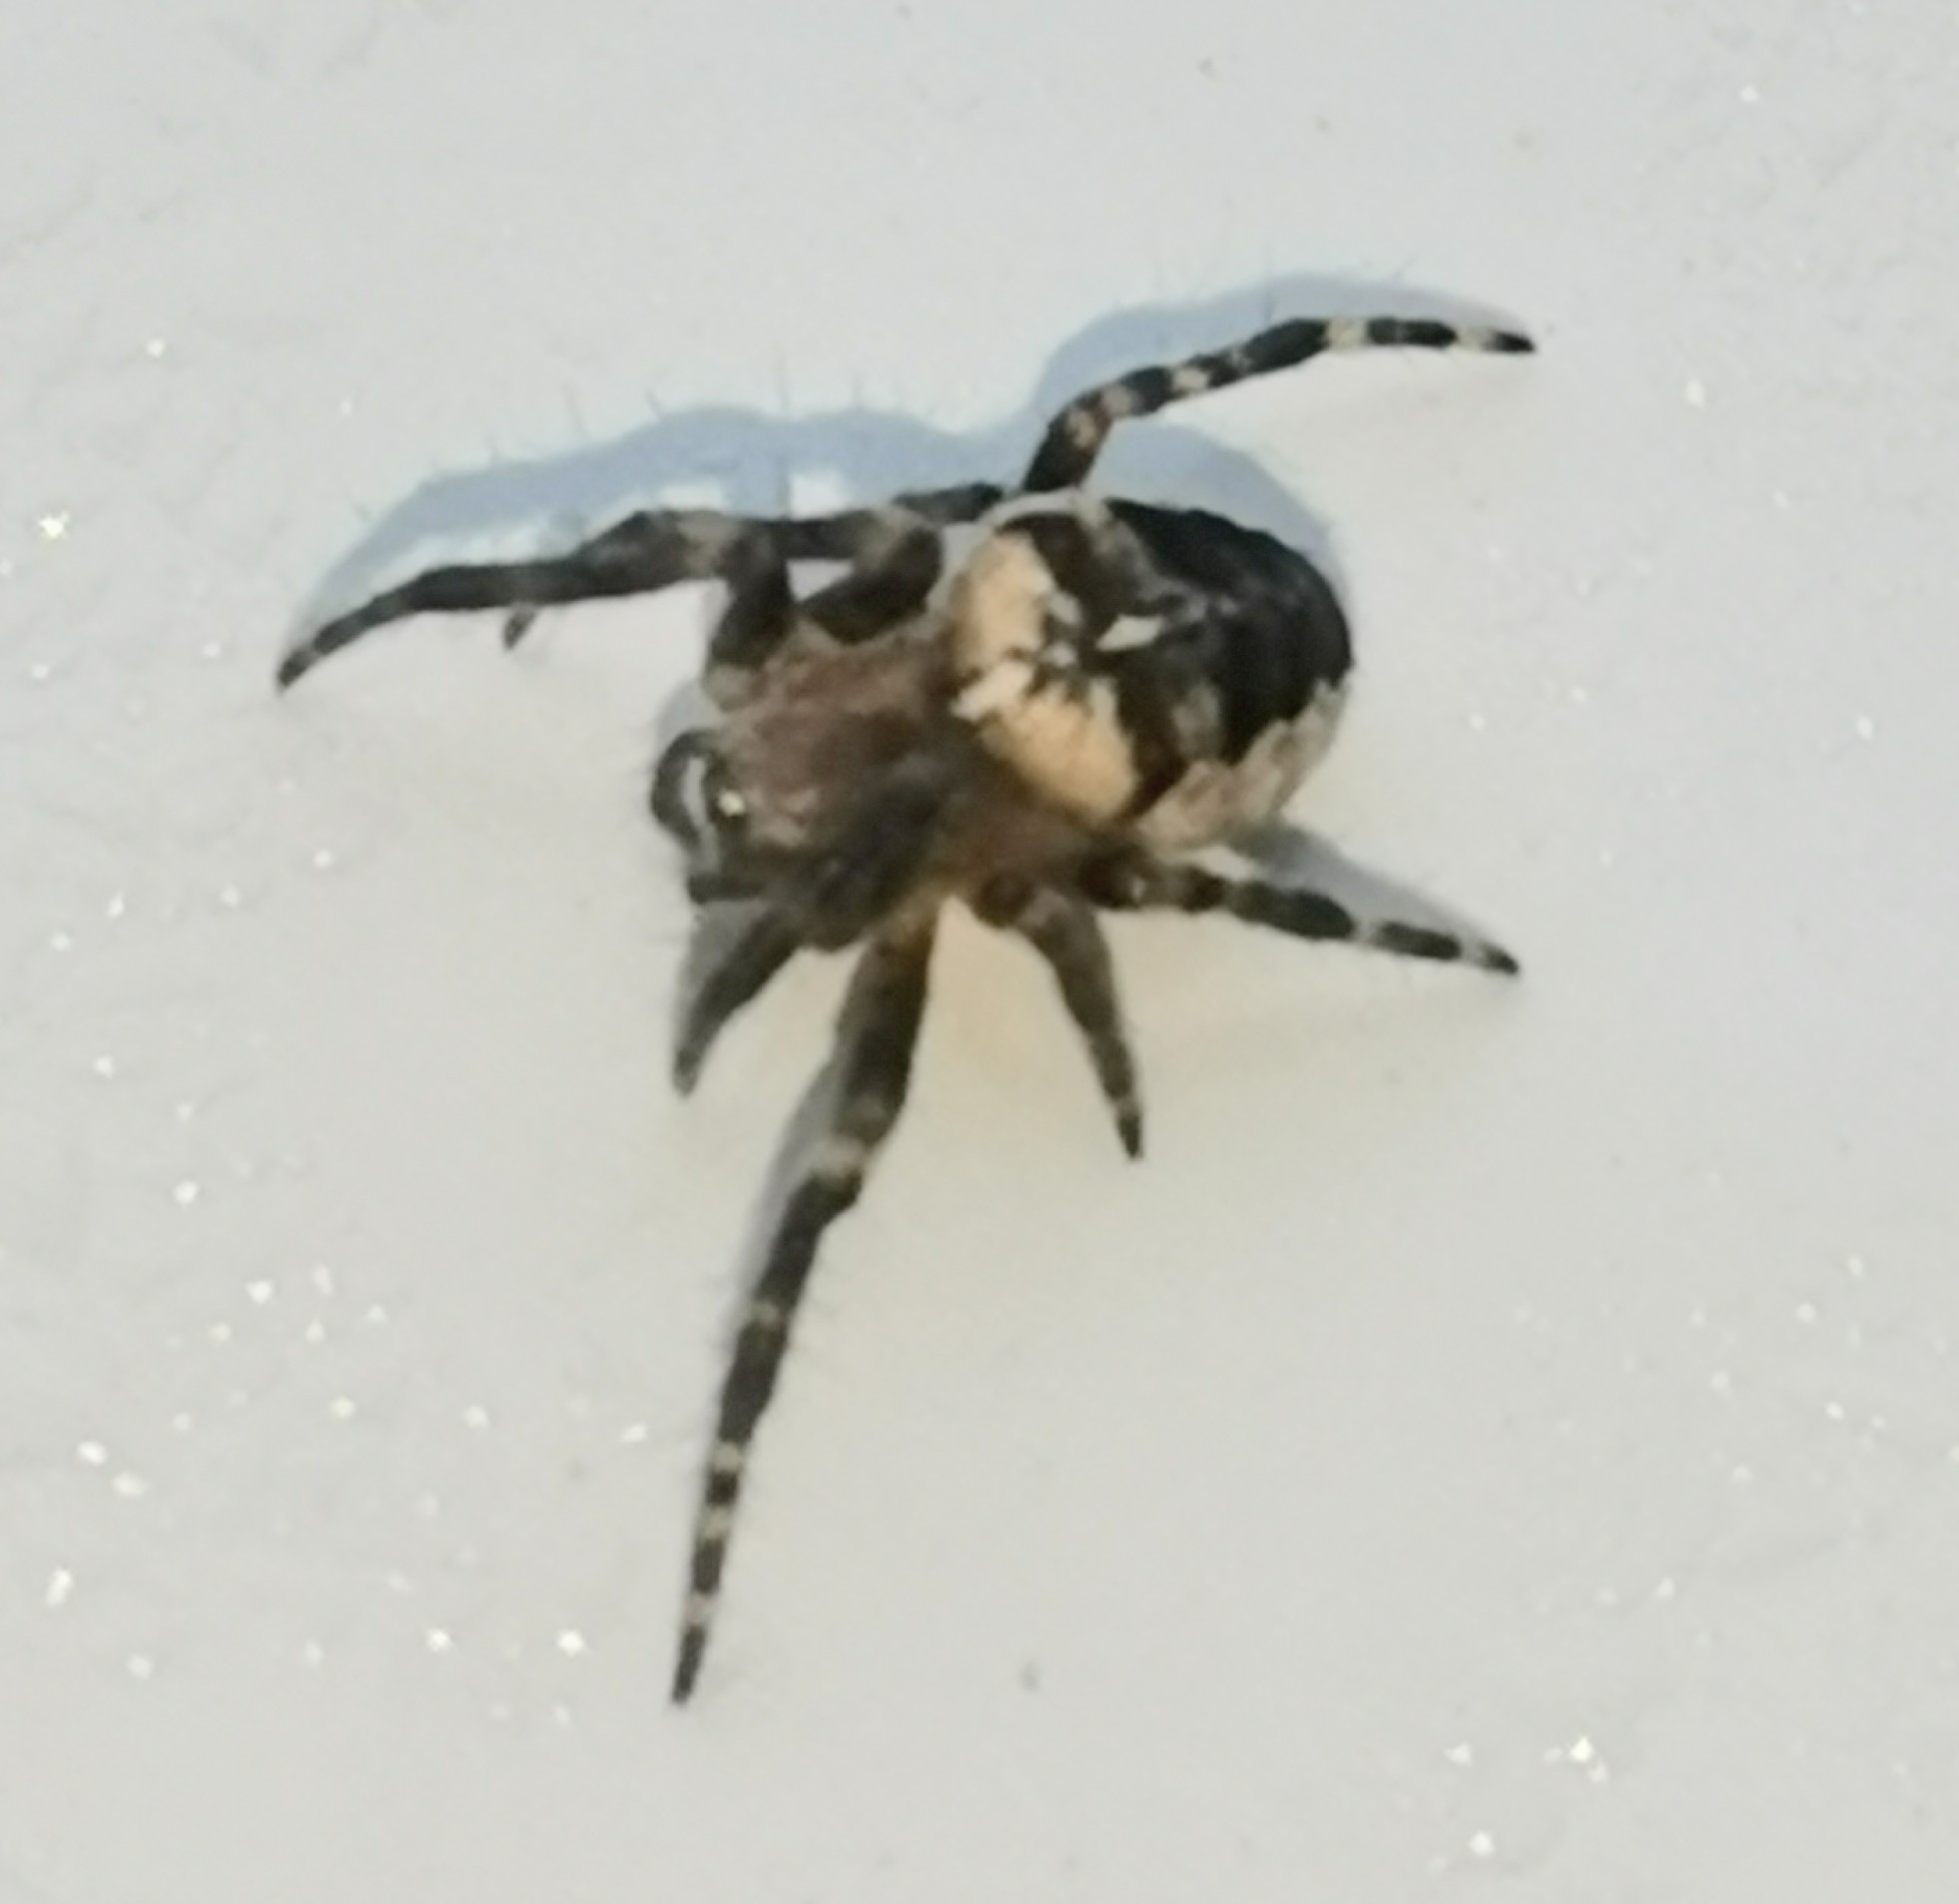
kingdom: Animalia
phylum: Arthropoda
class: Arachnida
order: Araneae
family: Araneidae
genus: Araneus
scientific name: Araneus diadematus
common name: Cross orbweaver
